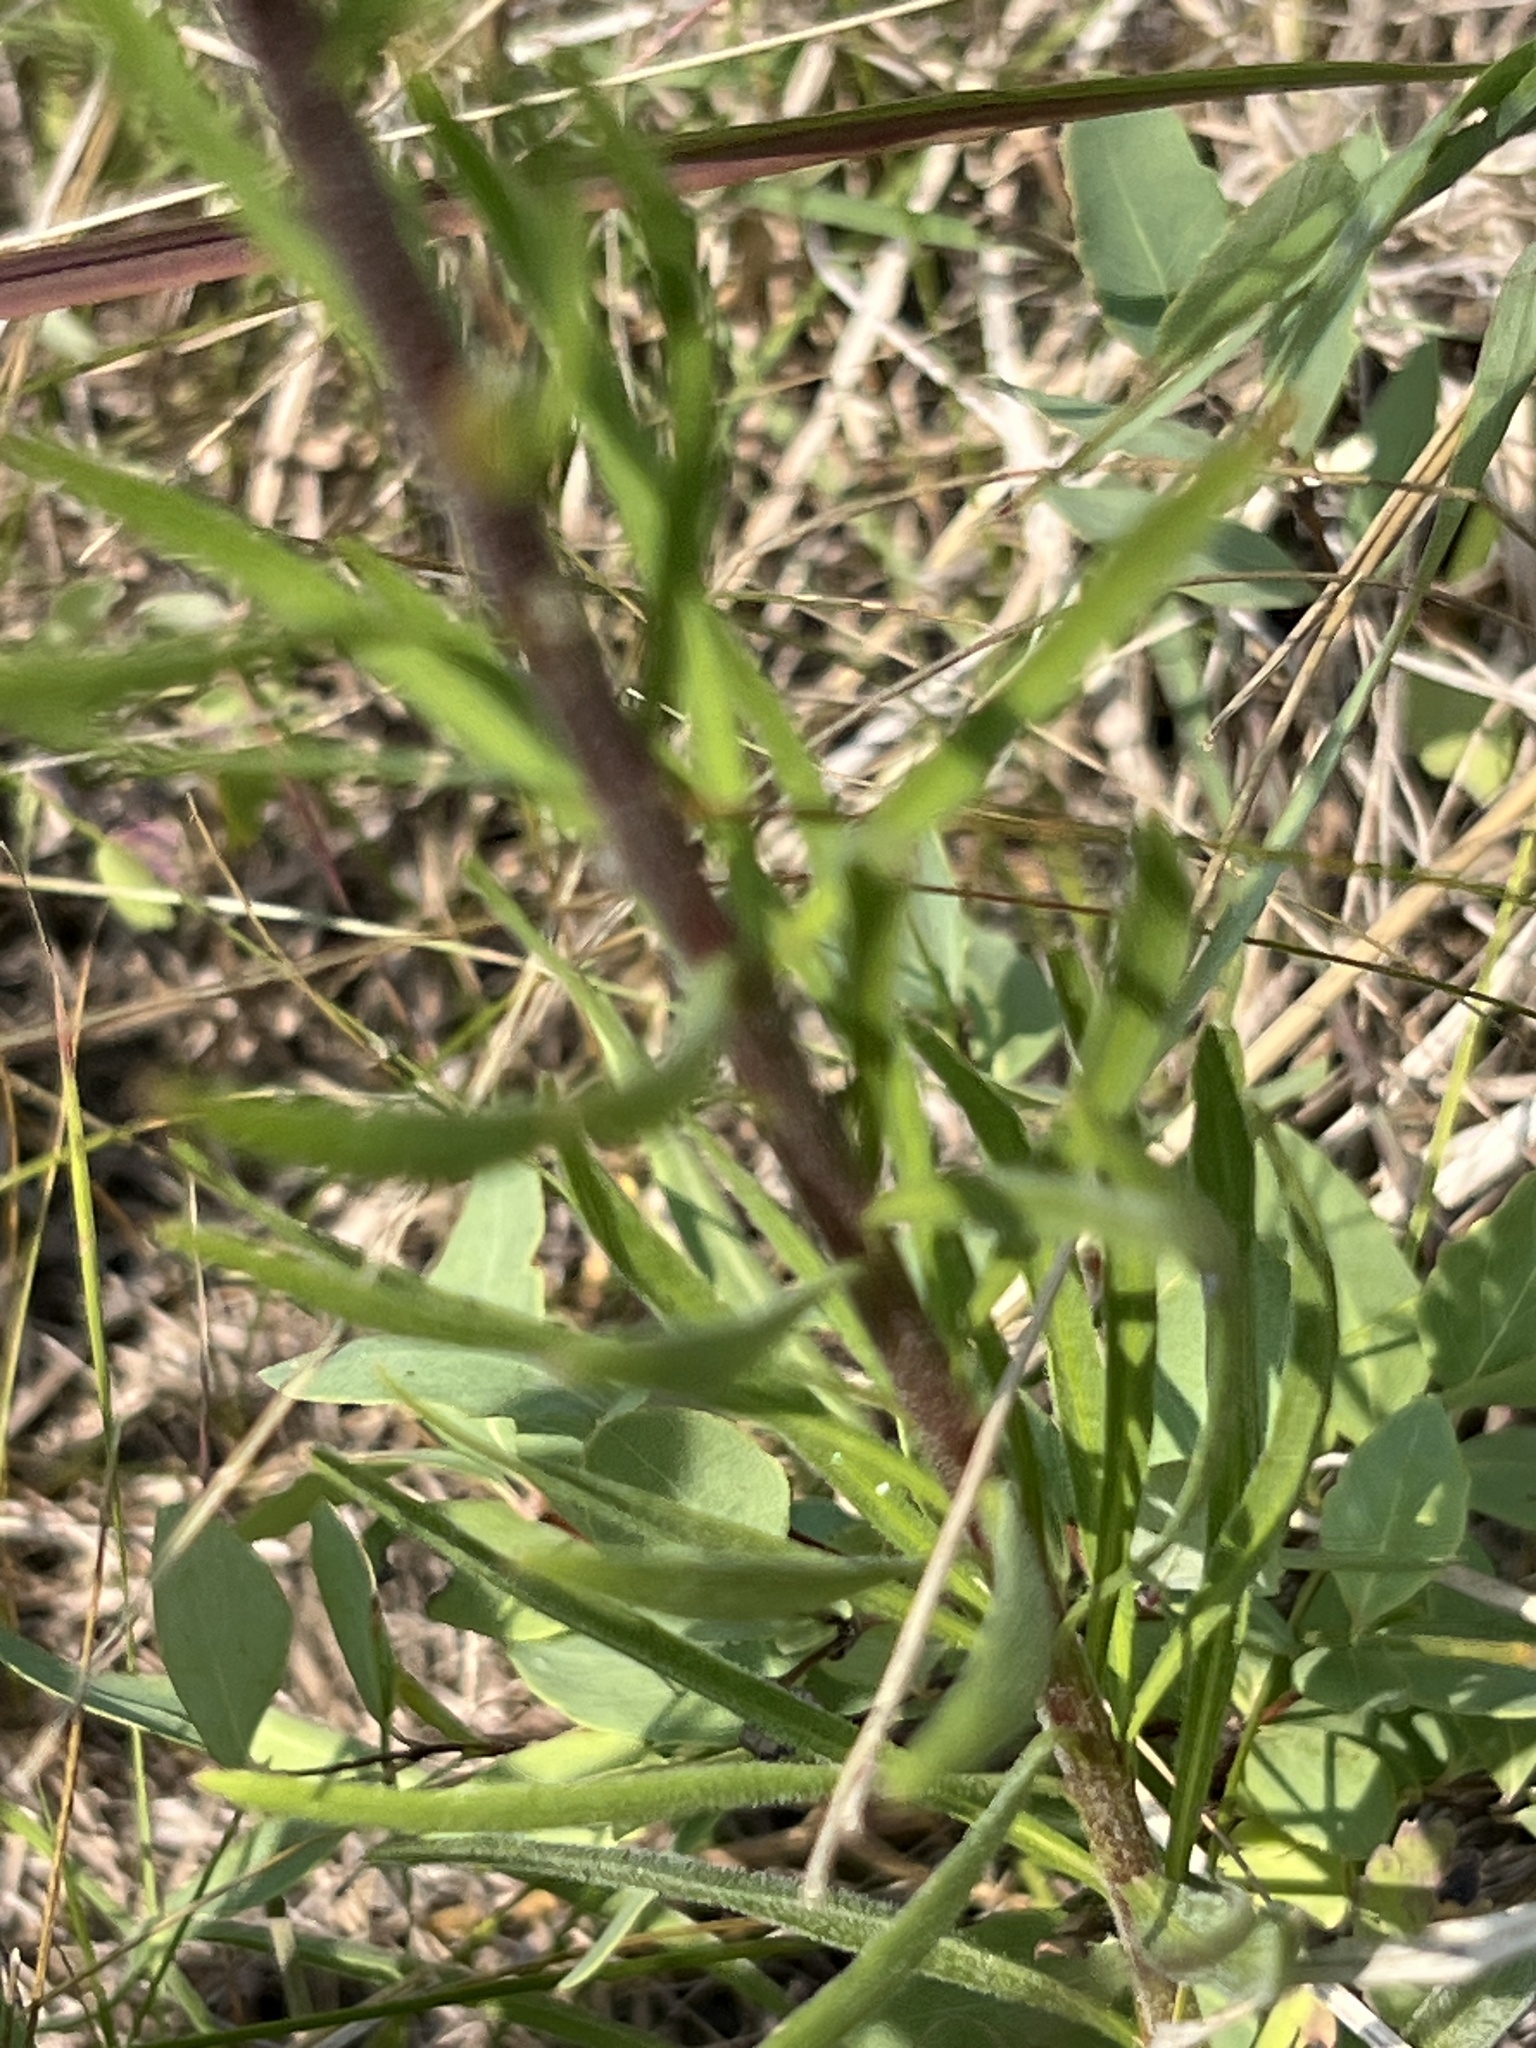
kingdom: Plantae
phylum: Tracheophyta
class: Magnoliopsida
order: Asterales
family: Asteraceae
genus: Liatris
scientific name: Liatris ligulistylis
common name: Northern plains gayfeather
